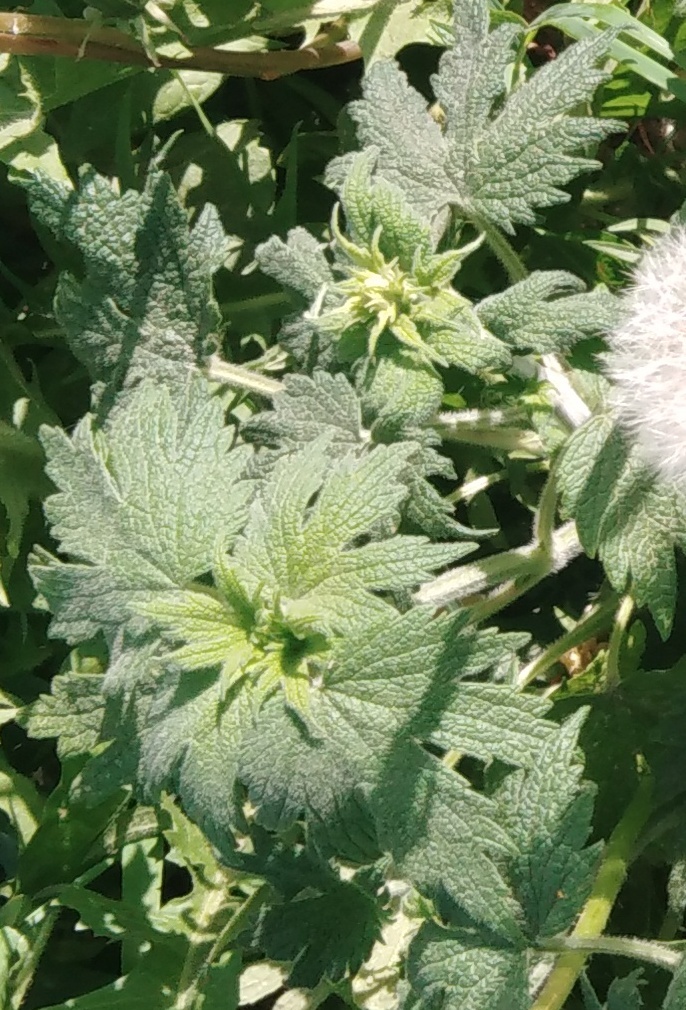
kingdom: Plantae
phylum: Tracheophyta
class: Magnoliopsida
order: Lamiales
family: Lamiaceae
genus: Leonurus
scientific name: Leonurus quinquelobatus
